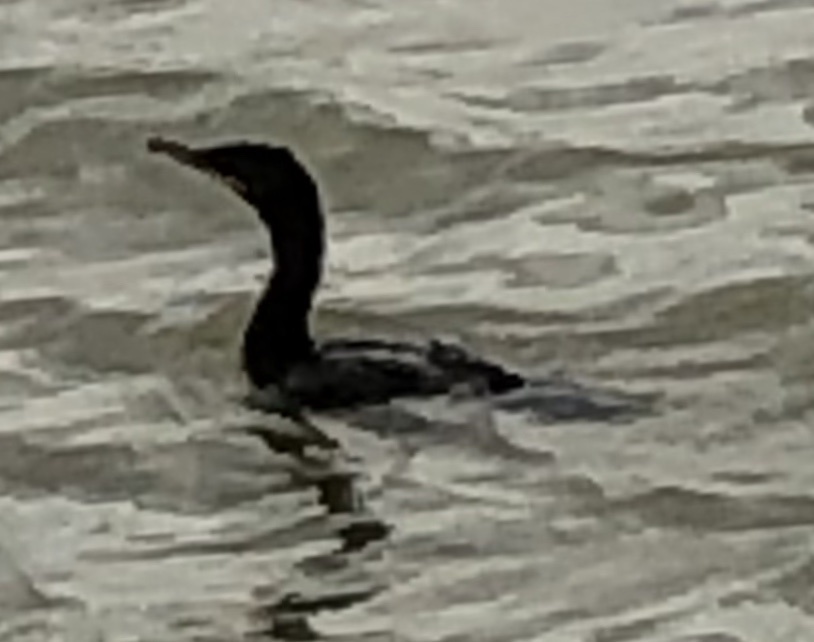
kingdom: Animalia
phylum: Chordata
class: Aves
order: Suliformes
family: Phalacrocoracidae
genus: Phalacrocorax
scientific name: Phalacrocorax brasilianus
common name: Neotropic cormorant
